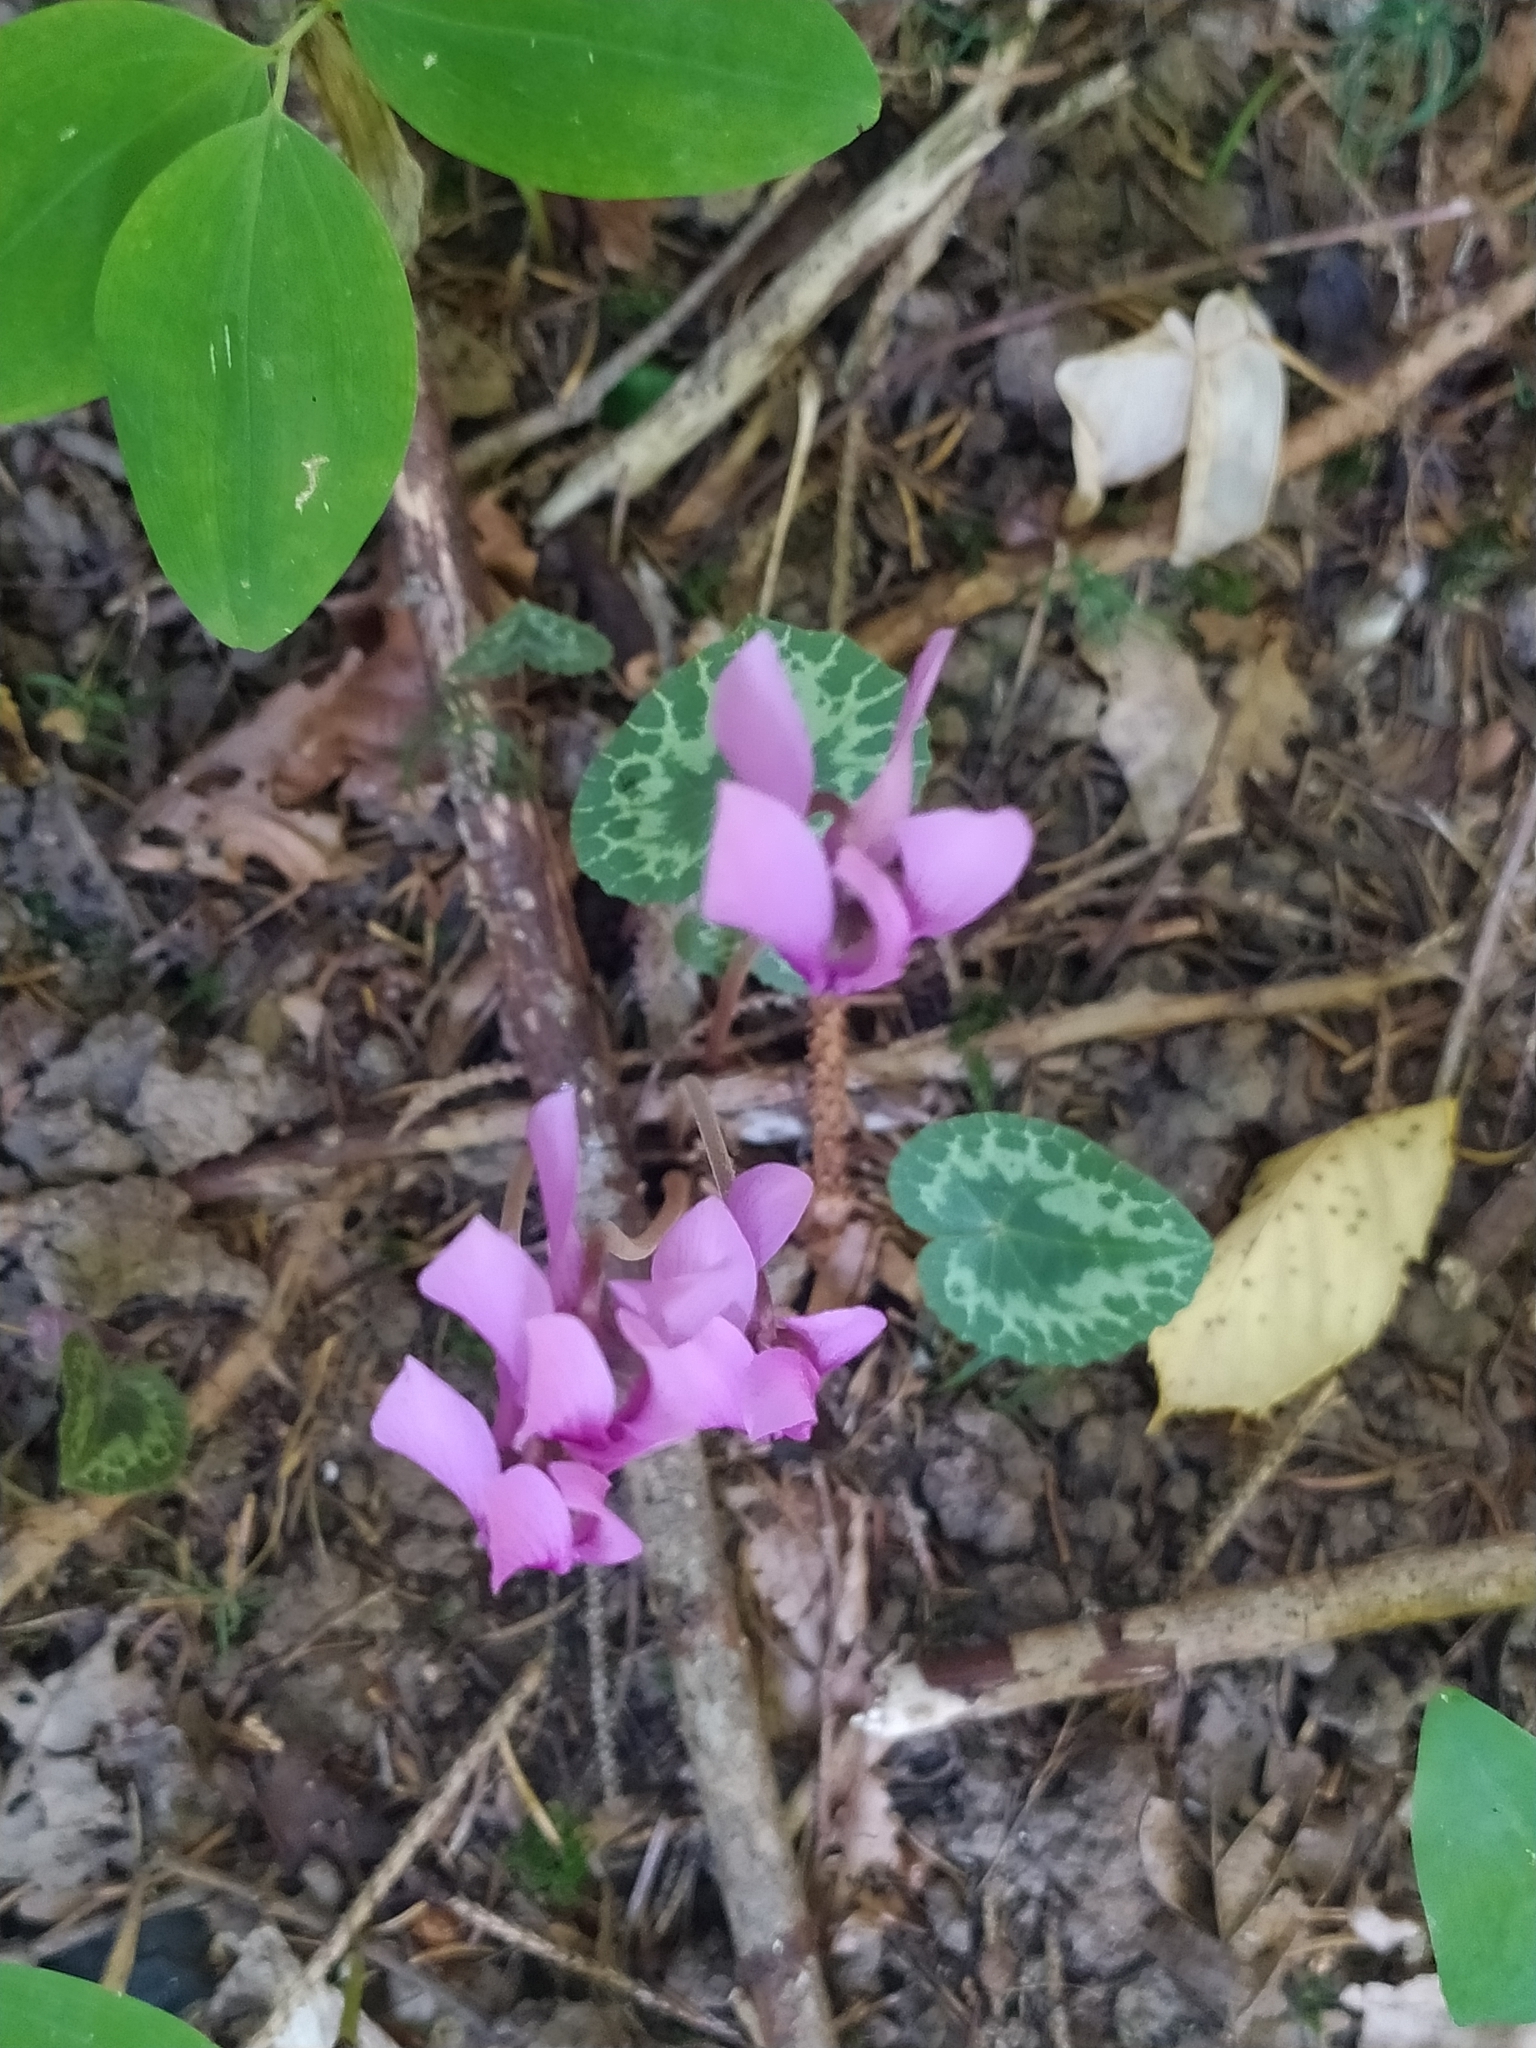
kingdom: Plantae
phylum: Tracheophyta
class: Magnoliopsida
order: Ericales
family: Primulaceae
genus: Cyclamen
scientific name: Cyclamen purpurascens
